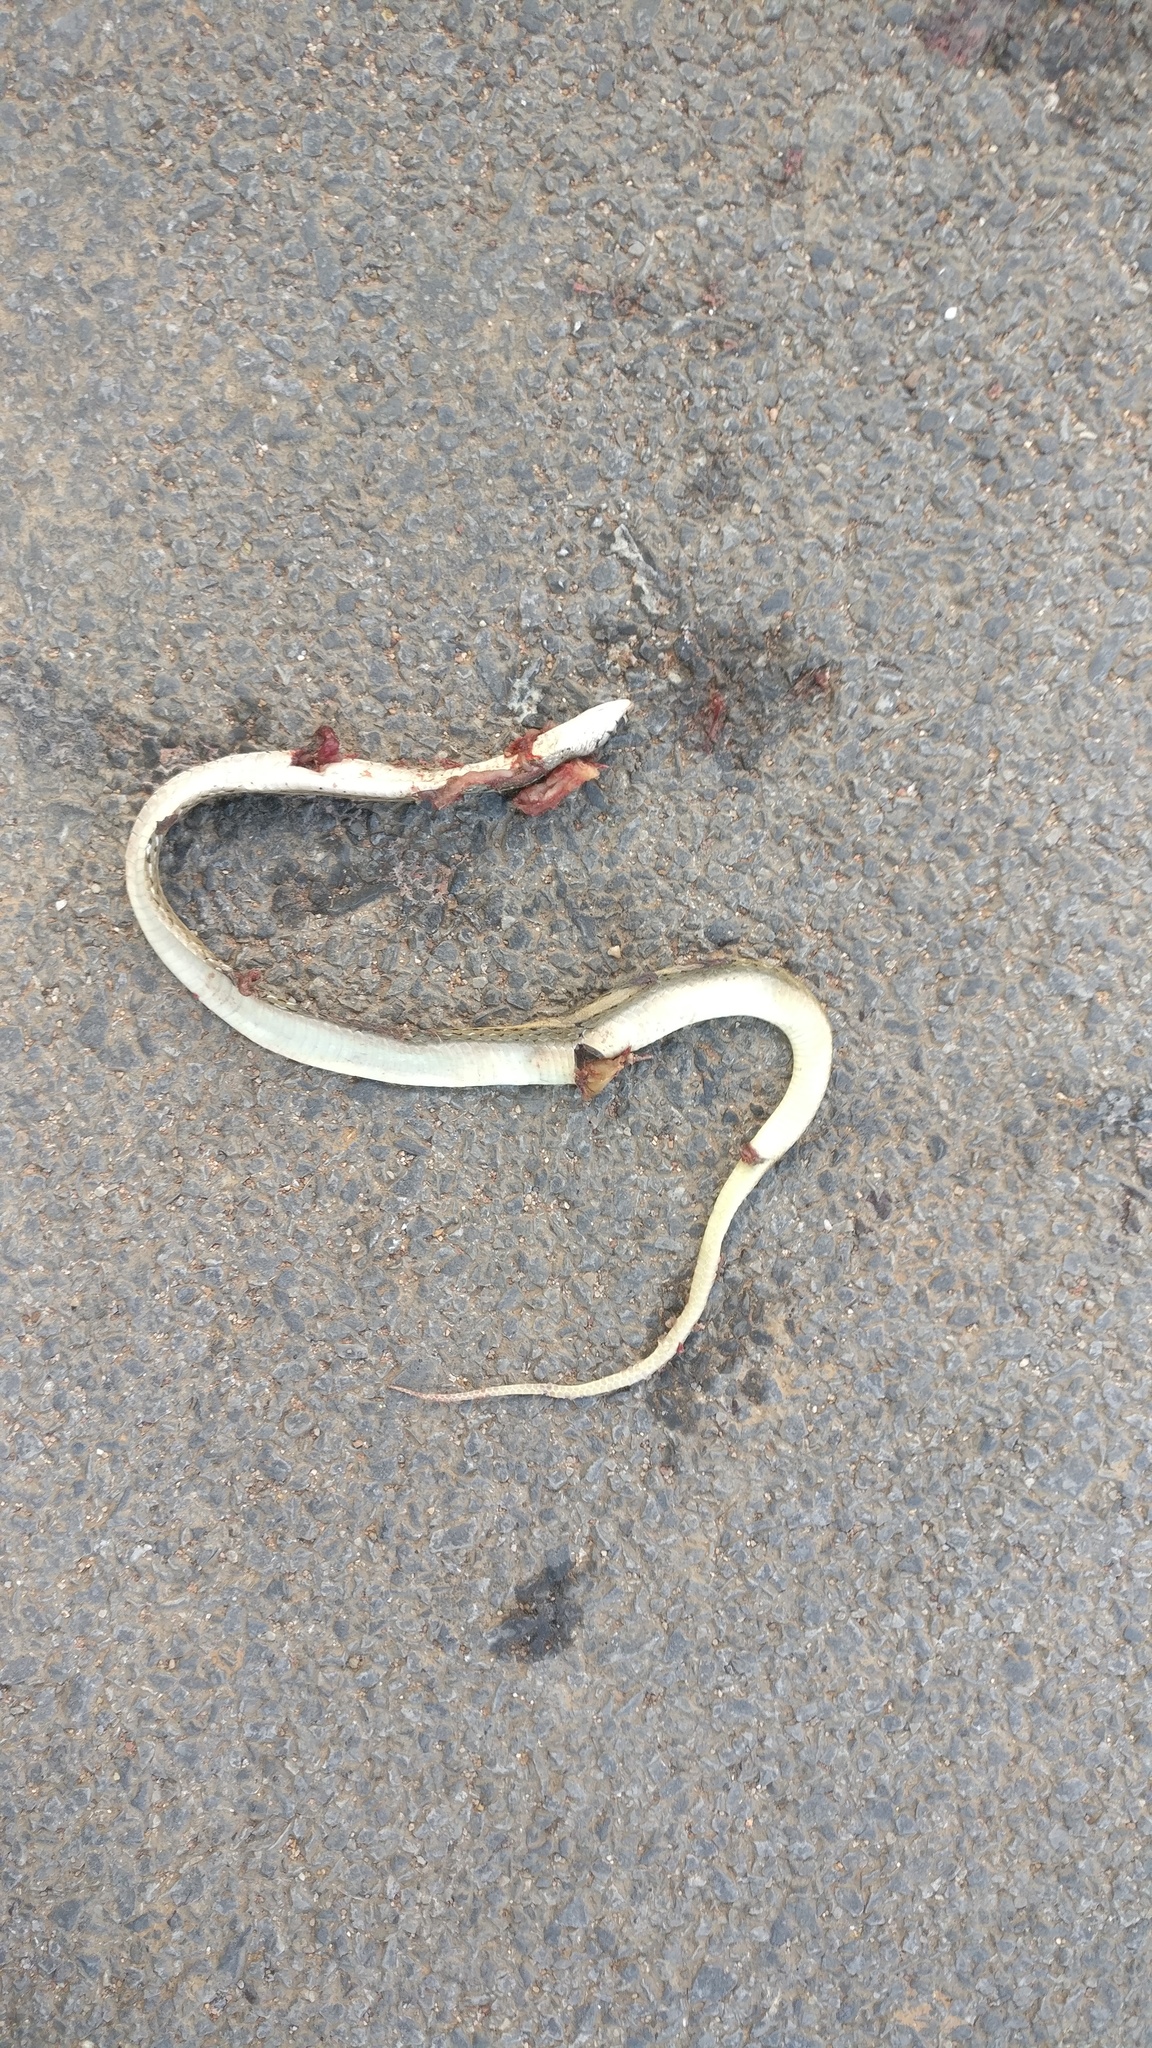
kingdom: Animalia
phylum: Chordata
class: Squamata
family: Colubridae
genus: Amphiesma
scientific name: Amphiesma stolatum
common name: Buff striped keelback
